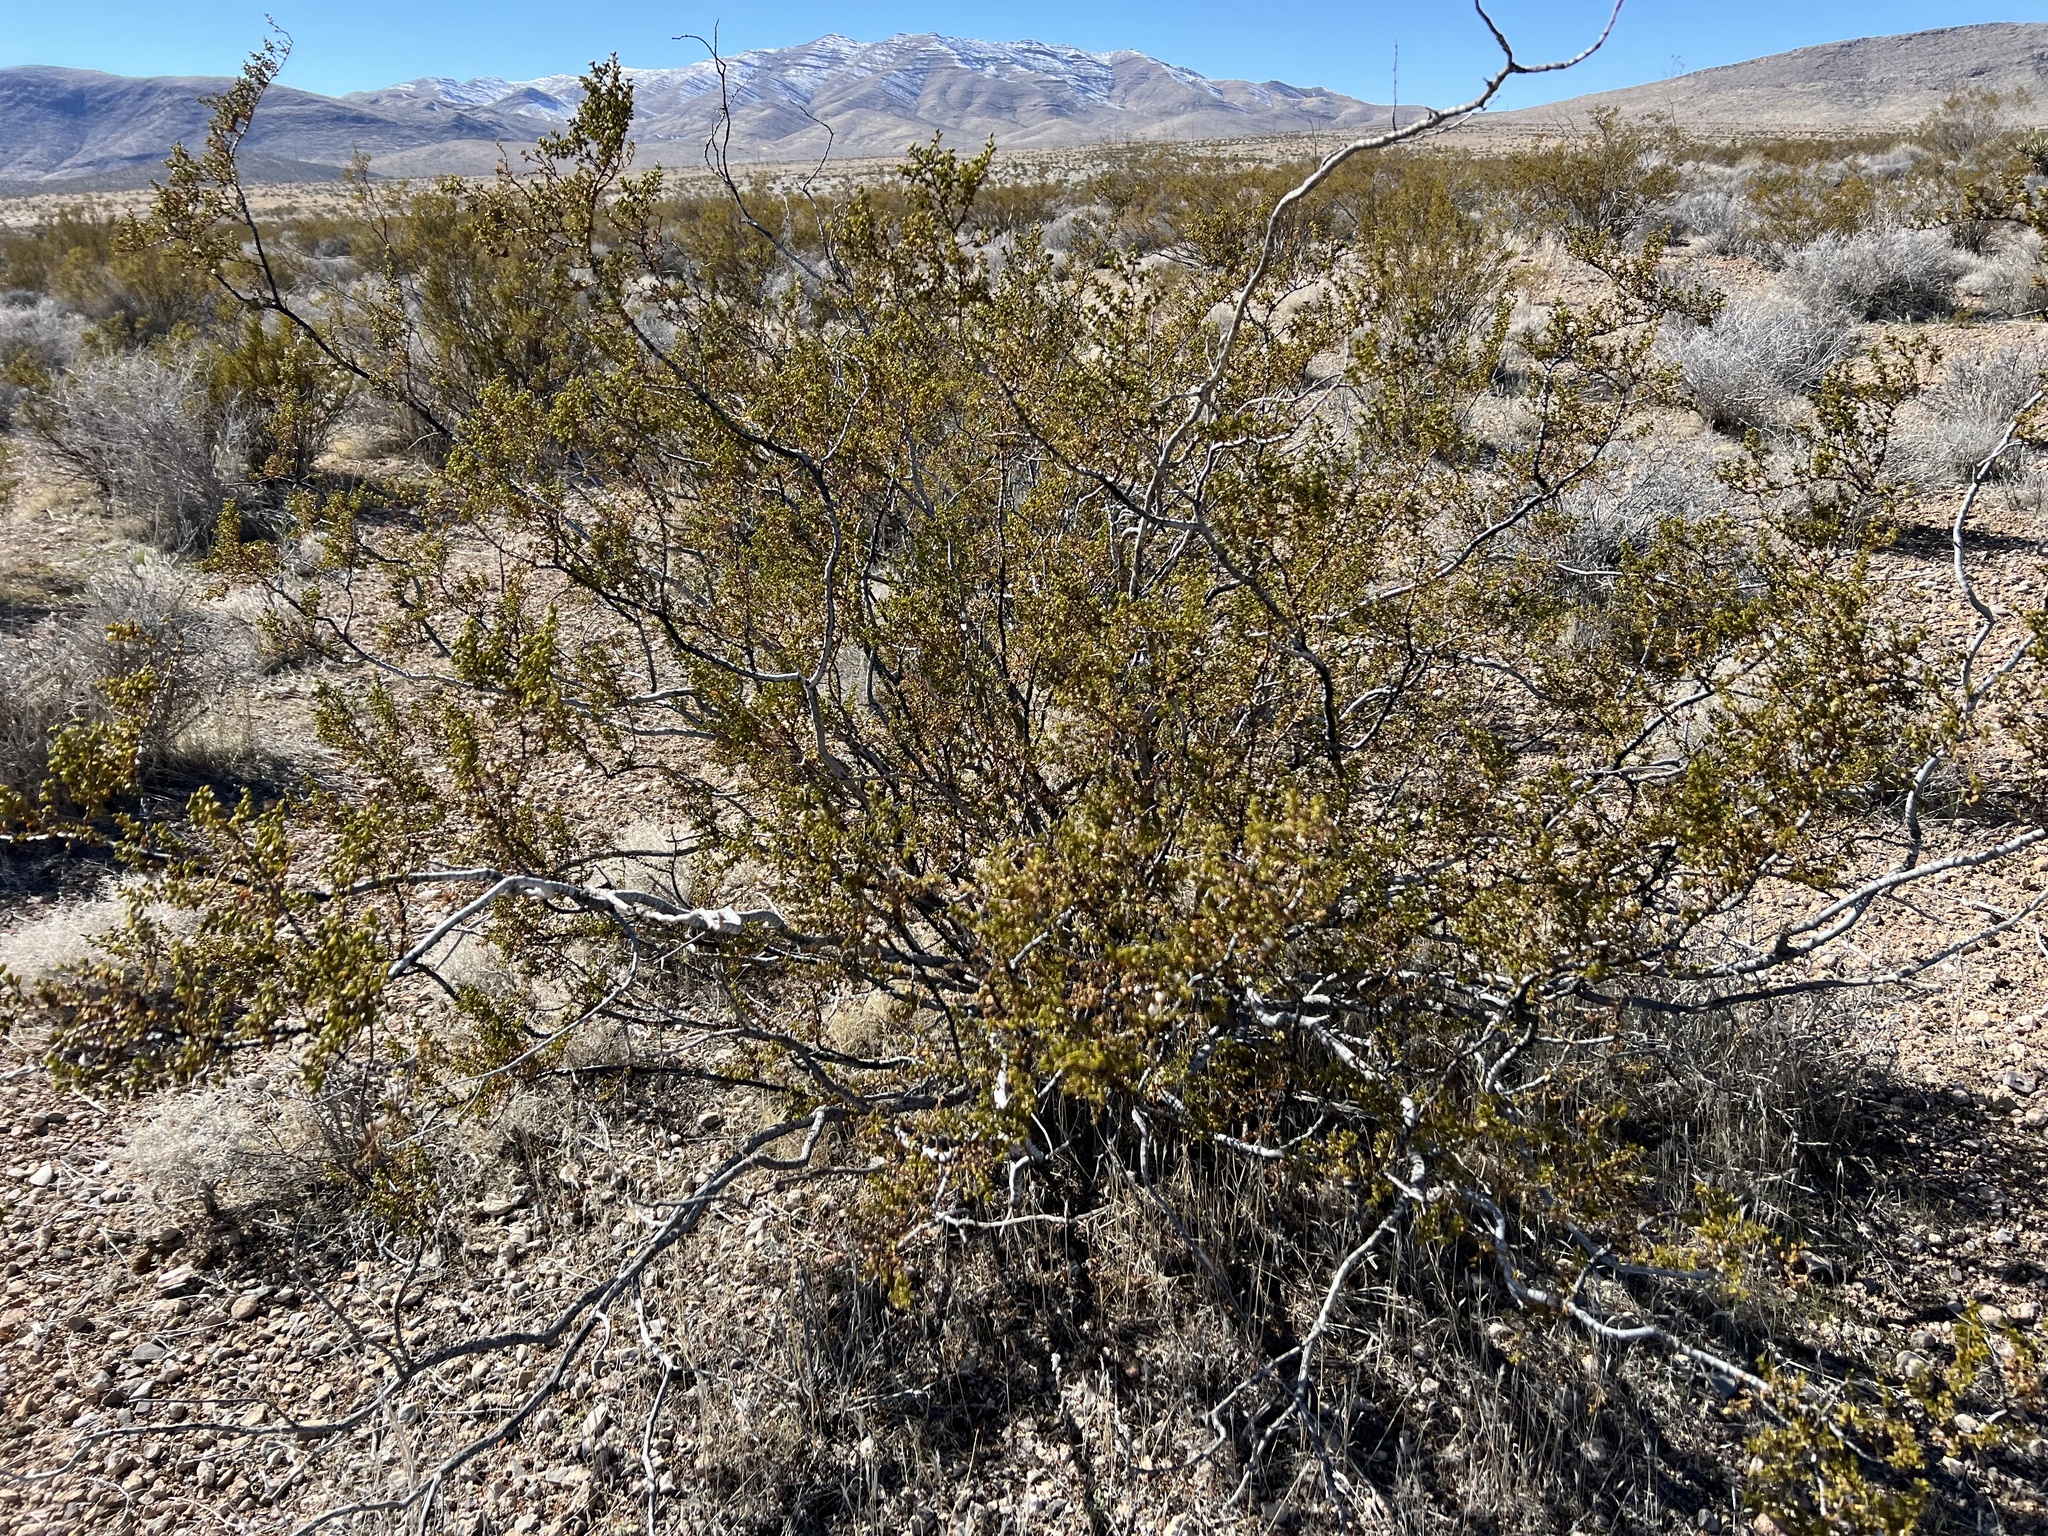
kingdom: Plantae
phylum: Tracheophyta
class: Magnoliopsida
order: Zygophyllales
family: Zygophyllaceae
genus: Larrea
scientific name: Larrea tridentata
